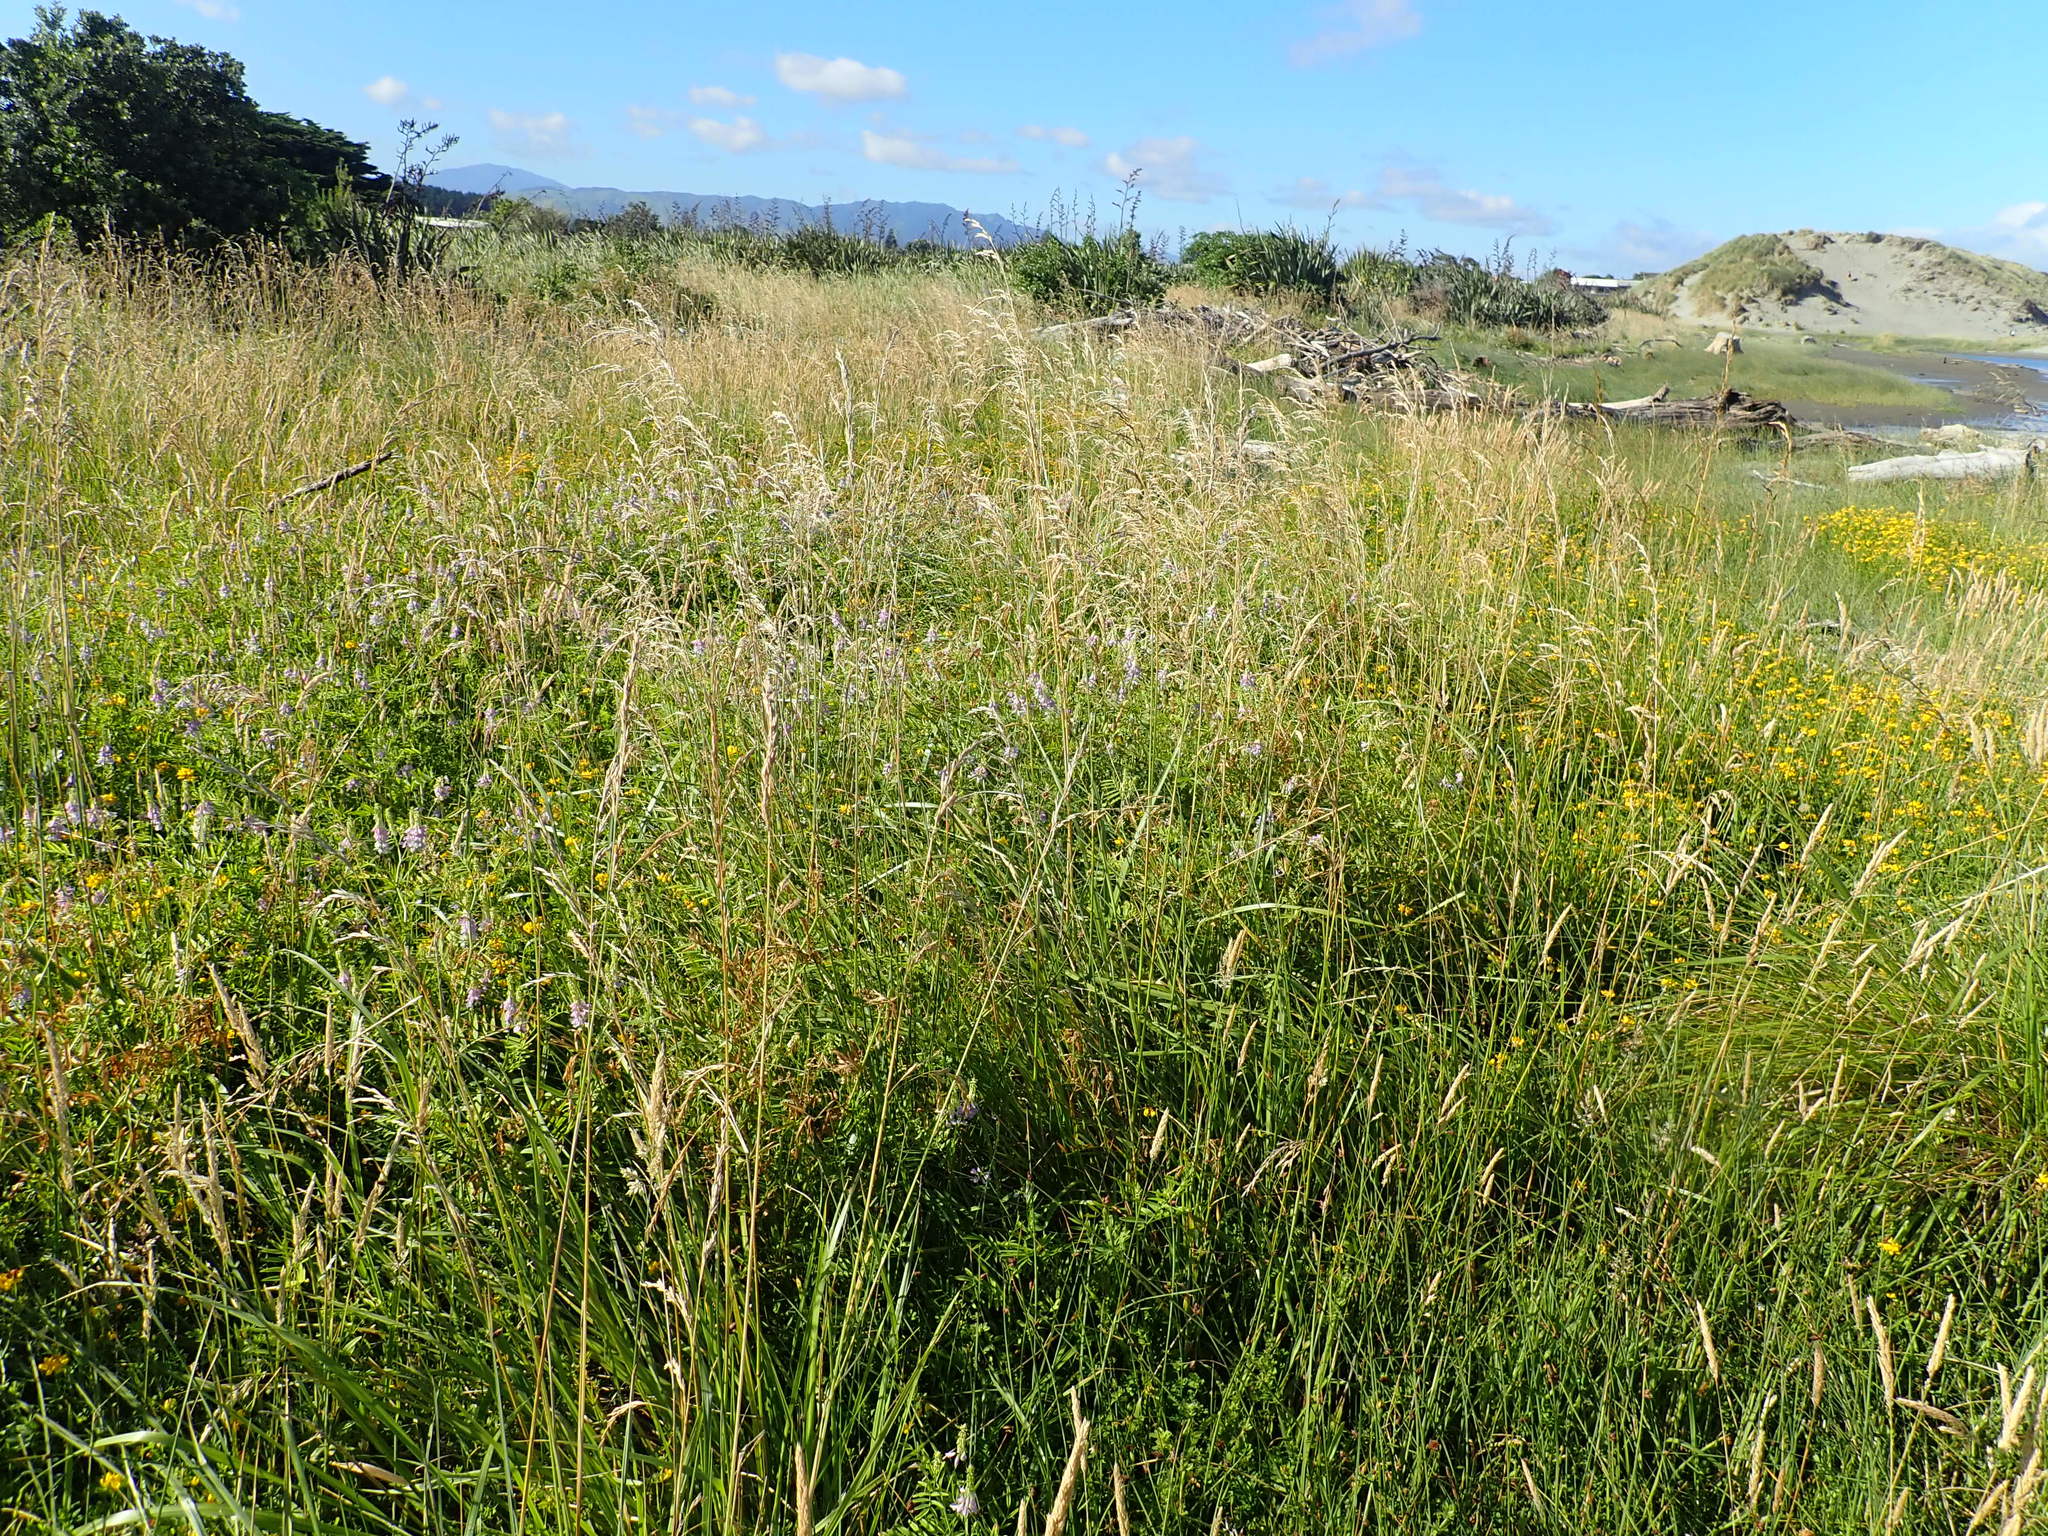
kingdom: Plantae
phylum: Tracheophyta
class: Magnoliopsida
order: Fabales
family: Fabaceae
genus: Galega
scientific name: Galega officinalis
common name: Goat's-rue
